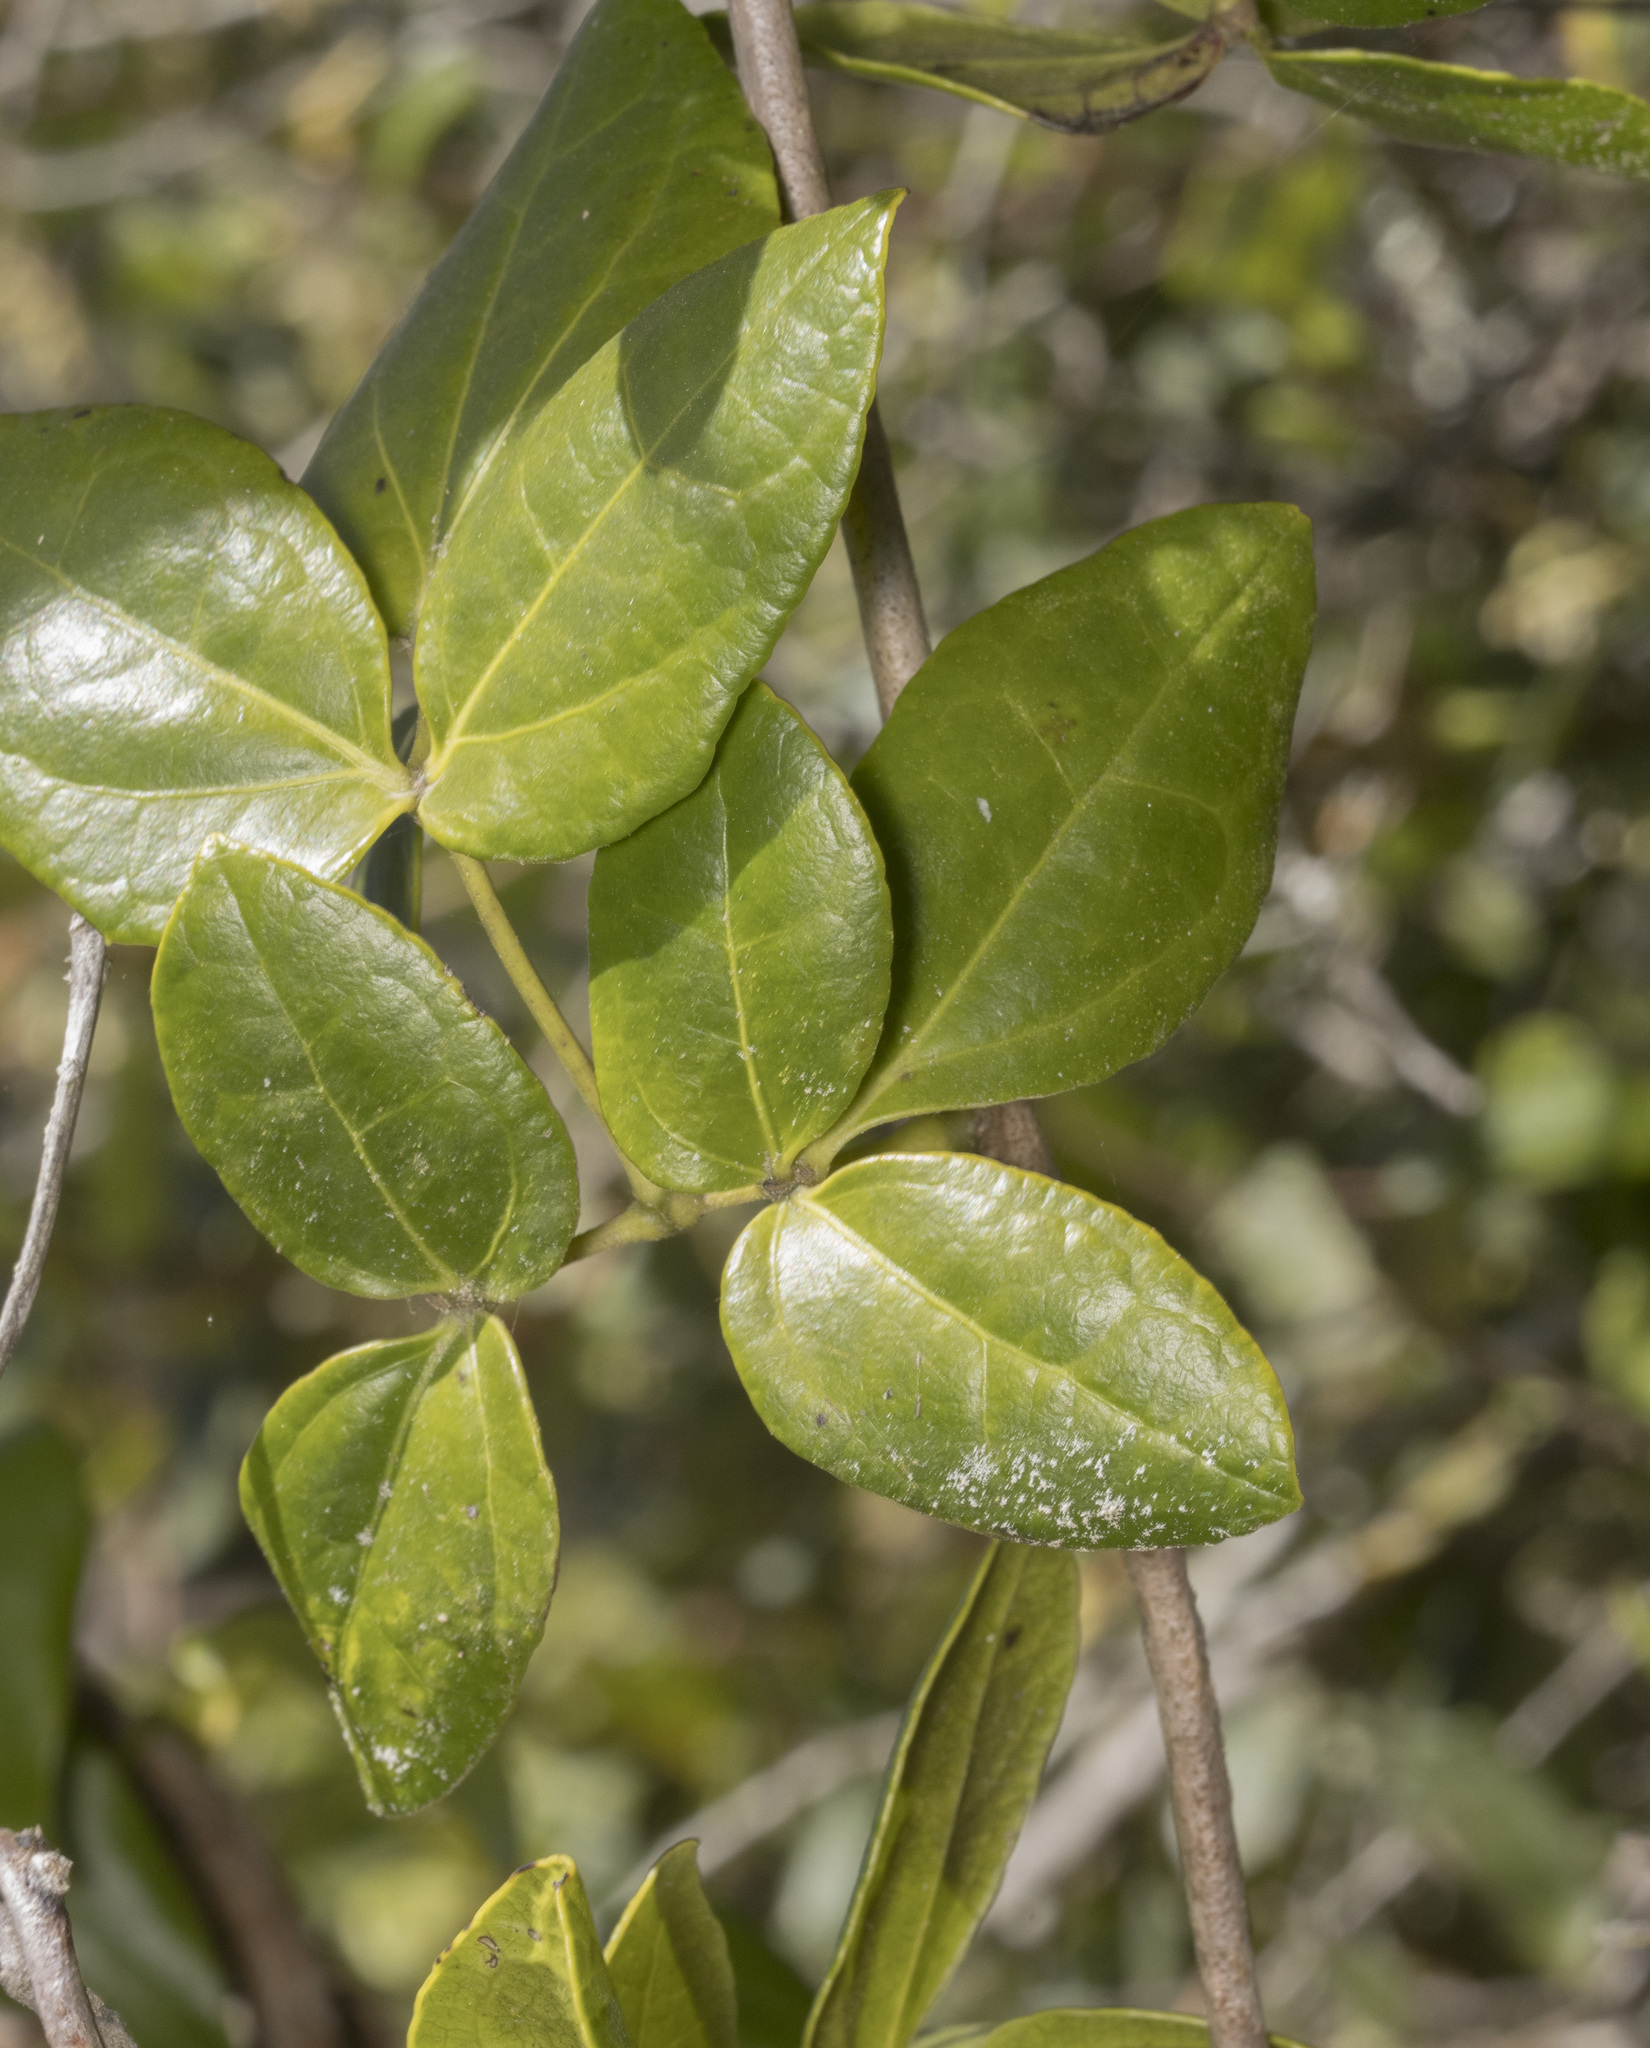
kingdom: Plantae
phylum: Tracheophyta
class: Magnoliopsida
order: Ranunculales
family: Lardizabalaceae
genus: Lardizabala
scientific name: Lardizabala funaria
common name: Zabala
